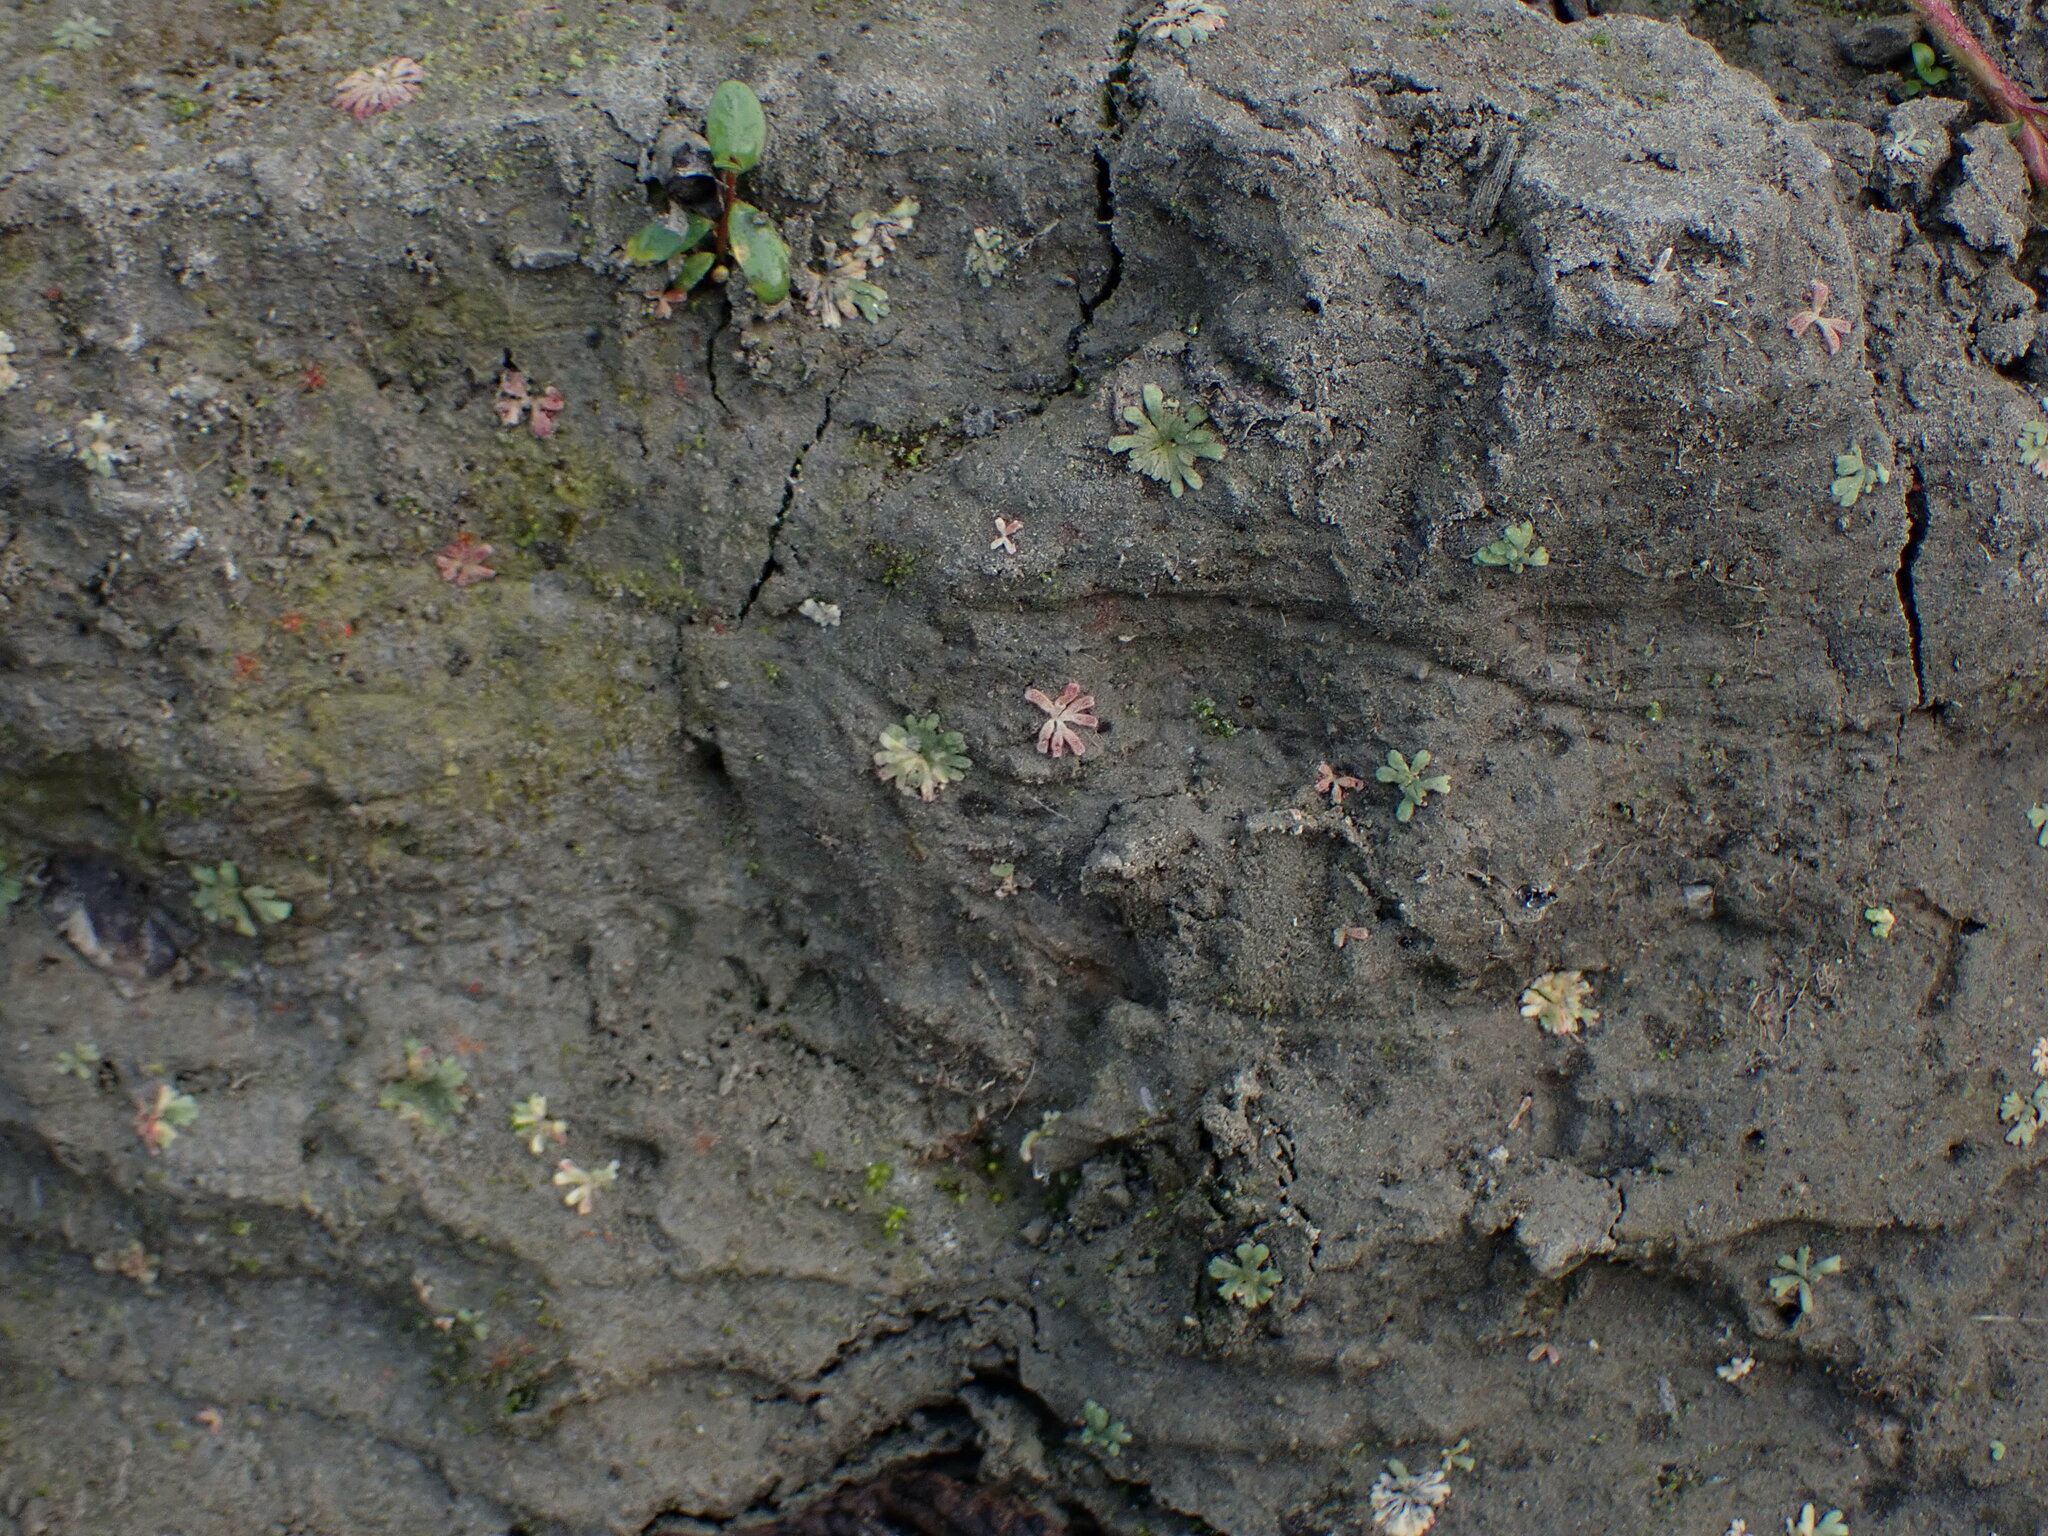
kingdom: Plantae
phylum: Marchantiophyta
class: Marchantiopsida
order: Marchantiales
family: Ricciaceae
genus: Riccia
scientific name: Riccia frostii
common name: Frost s crystalwort
